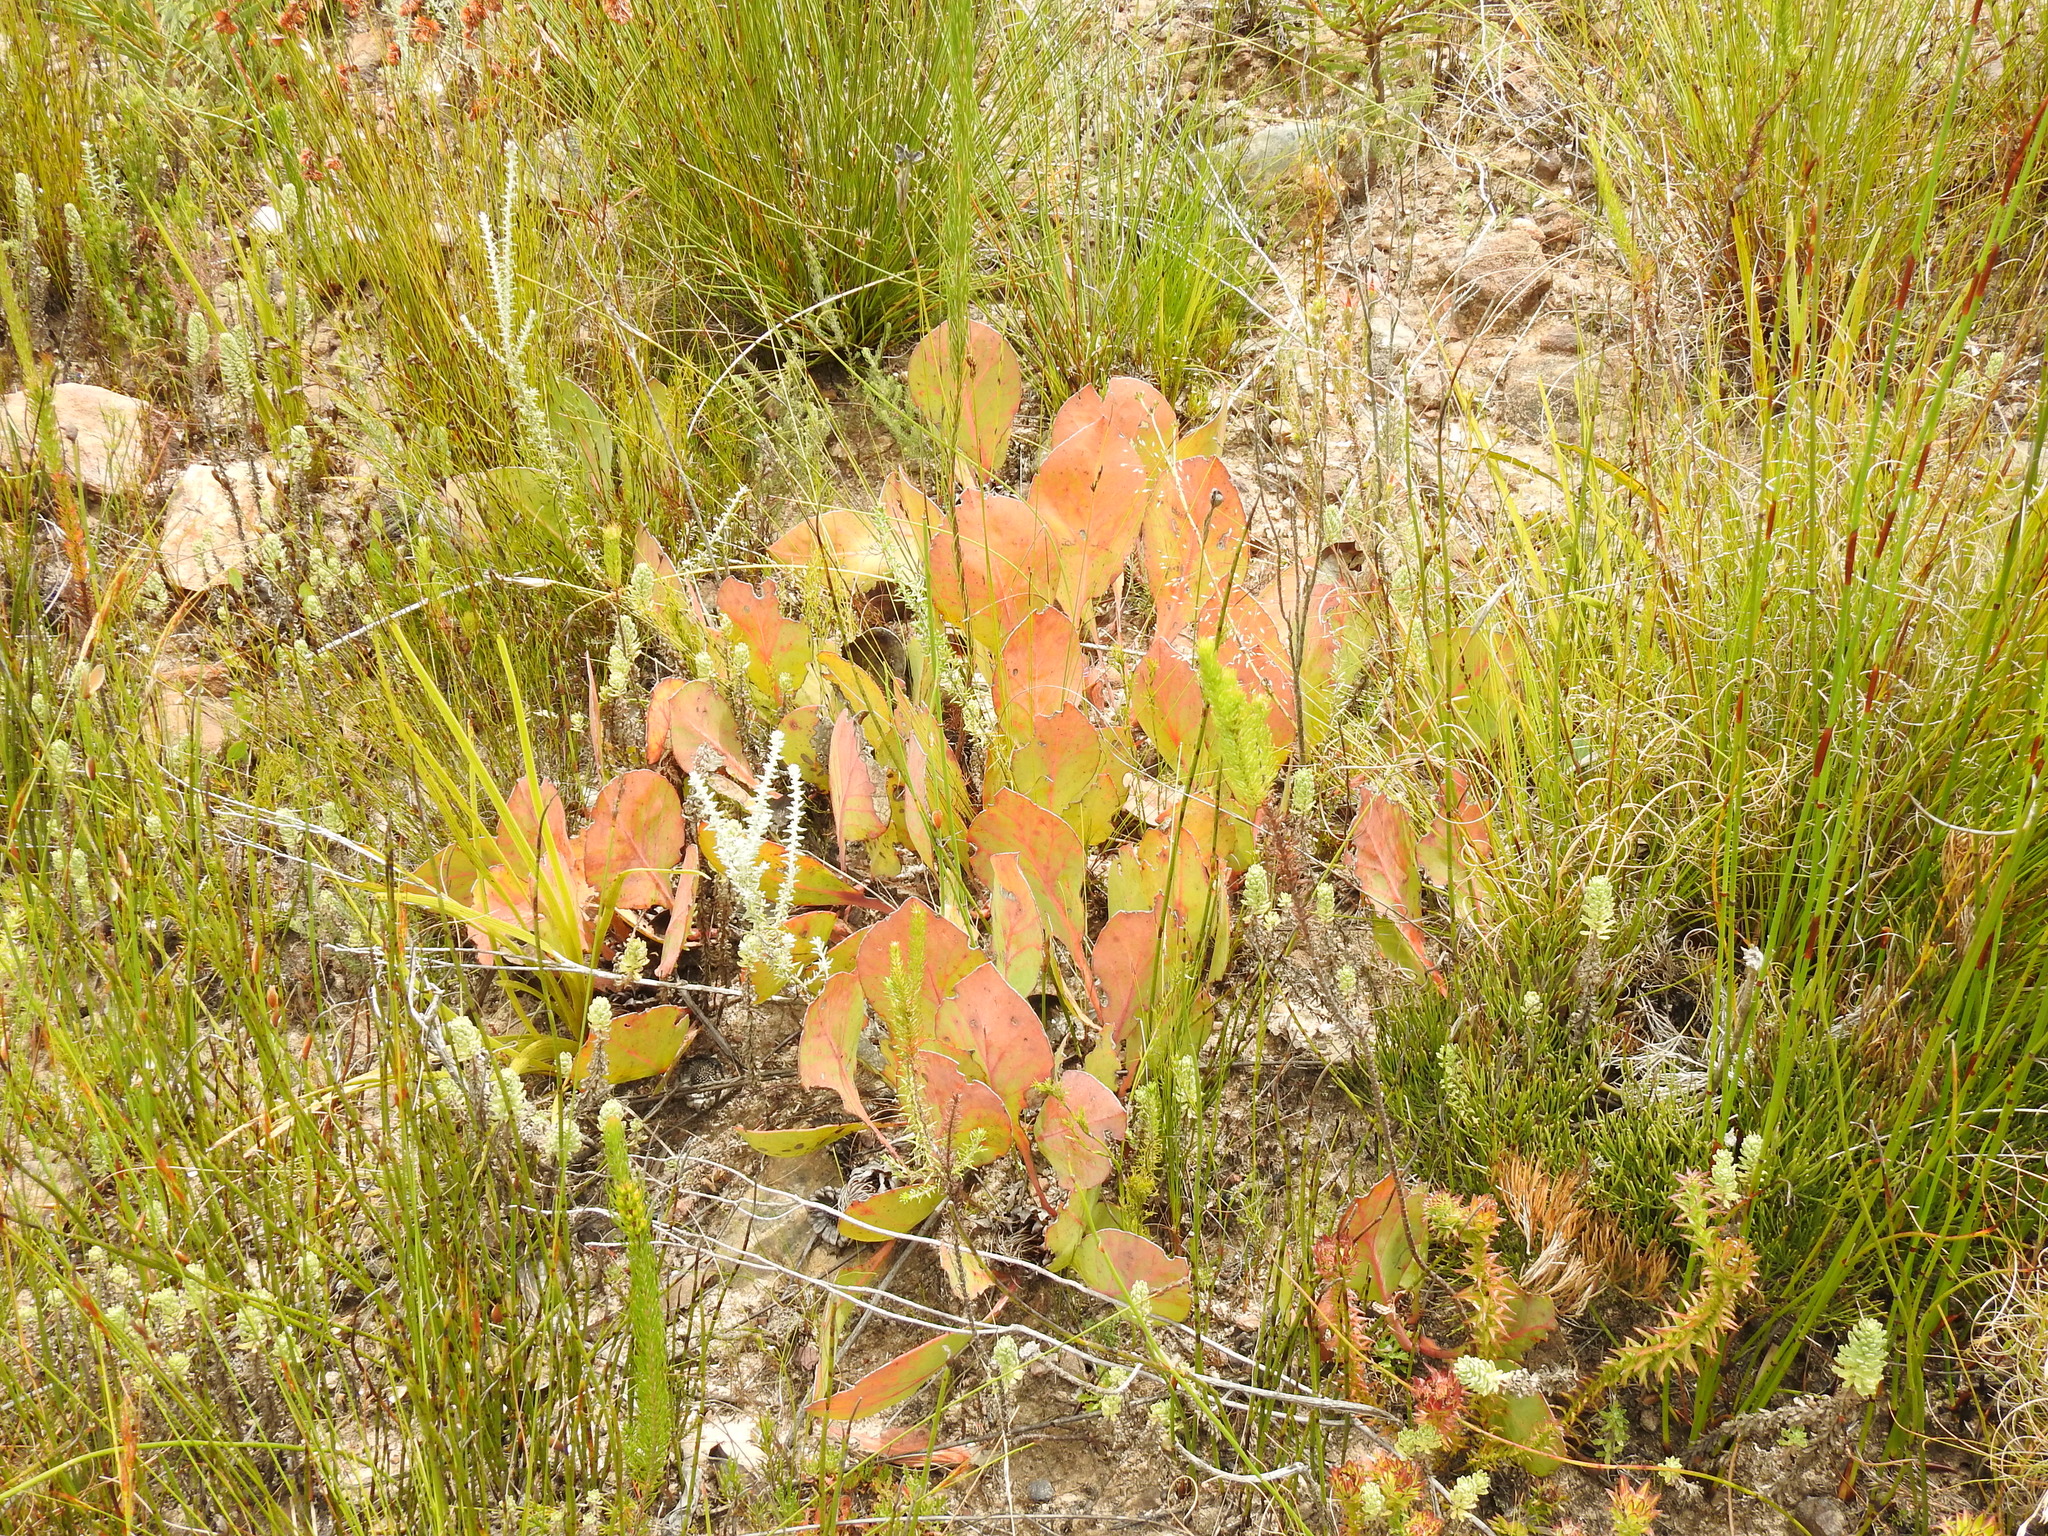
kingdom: Plantae
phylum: Tracheophyta
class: Magnoliopsida
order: Proteales
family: Proteaceae
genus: Protea
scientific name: Protea acaulos
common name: Common ground sugarbush
